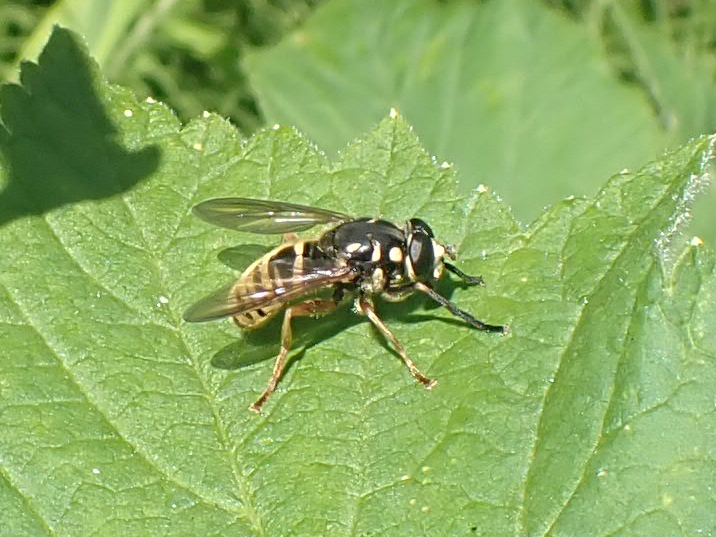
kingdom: Animalia
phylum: Arthropoda
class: Insecta
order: Diptera
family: Syrphidae
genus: Temnostoma
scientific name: Temnostoma excentricum
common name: Black-spotted falsehorn
